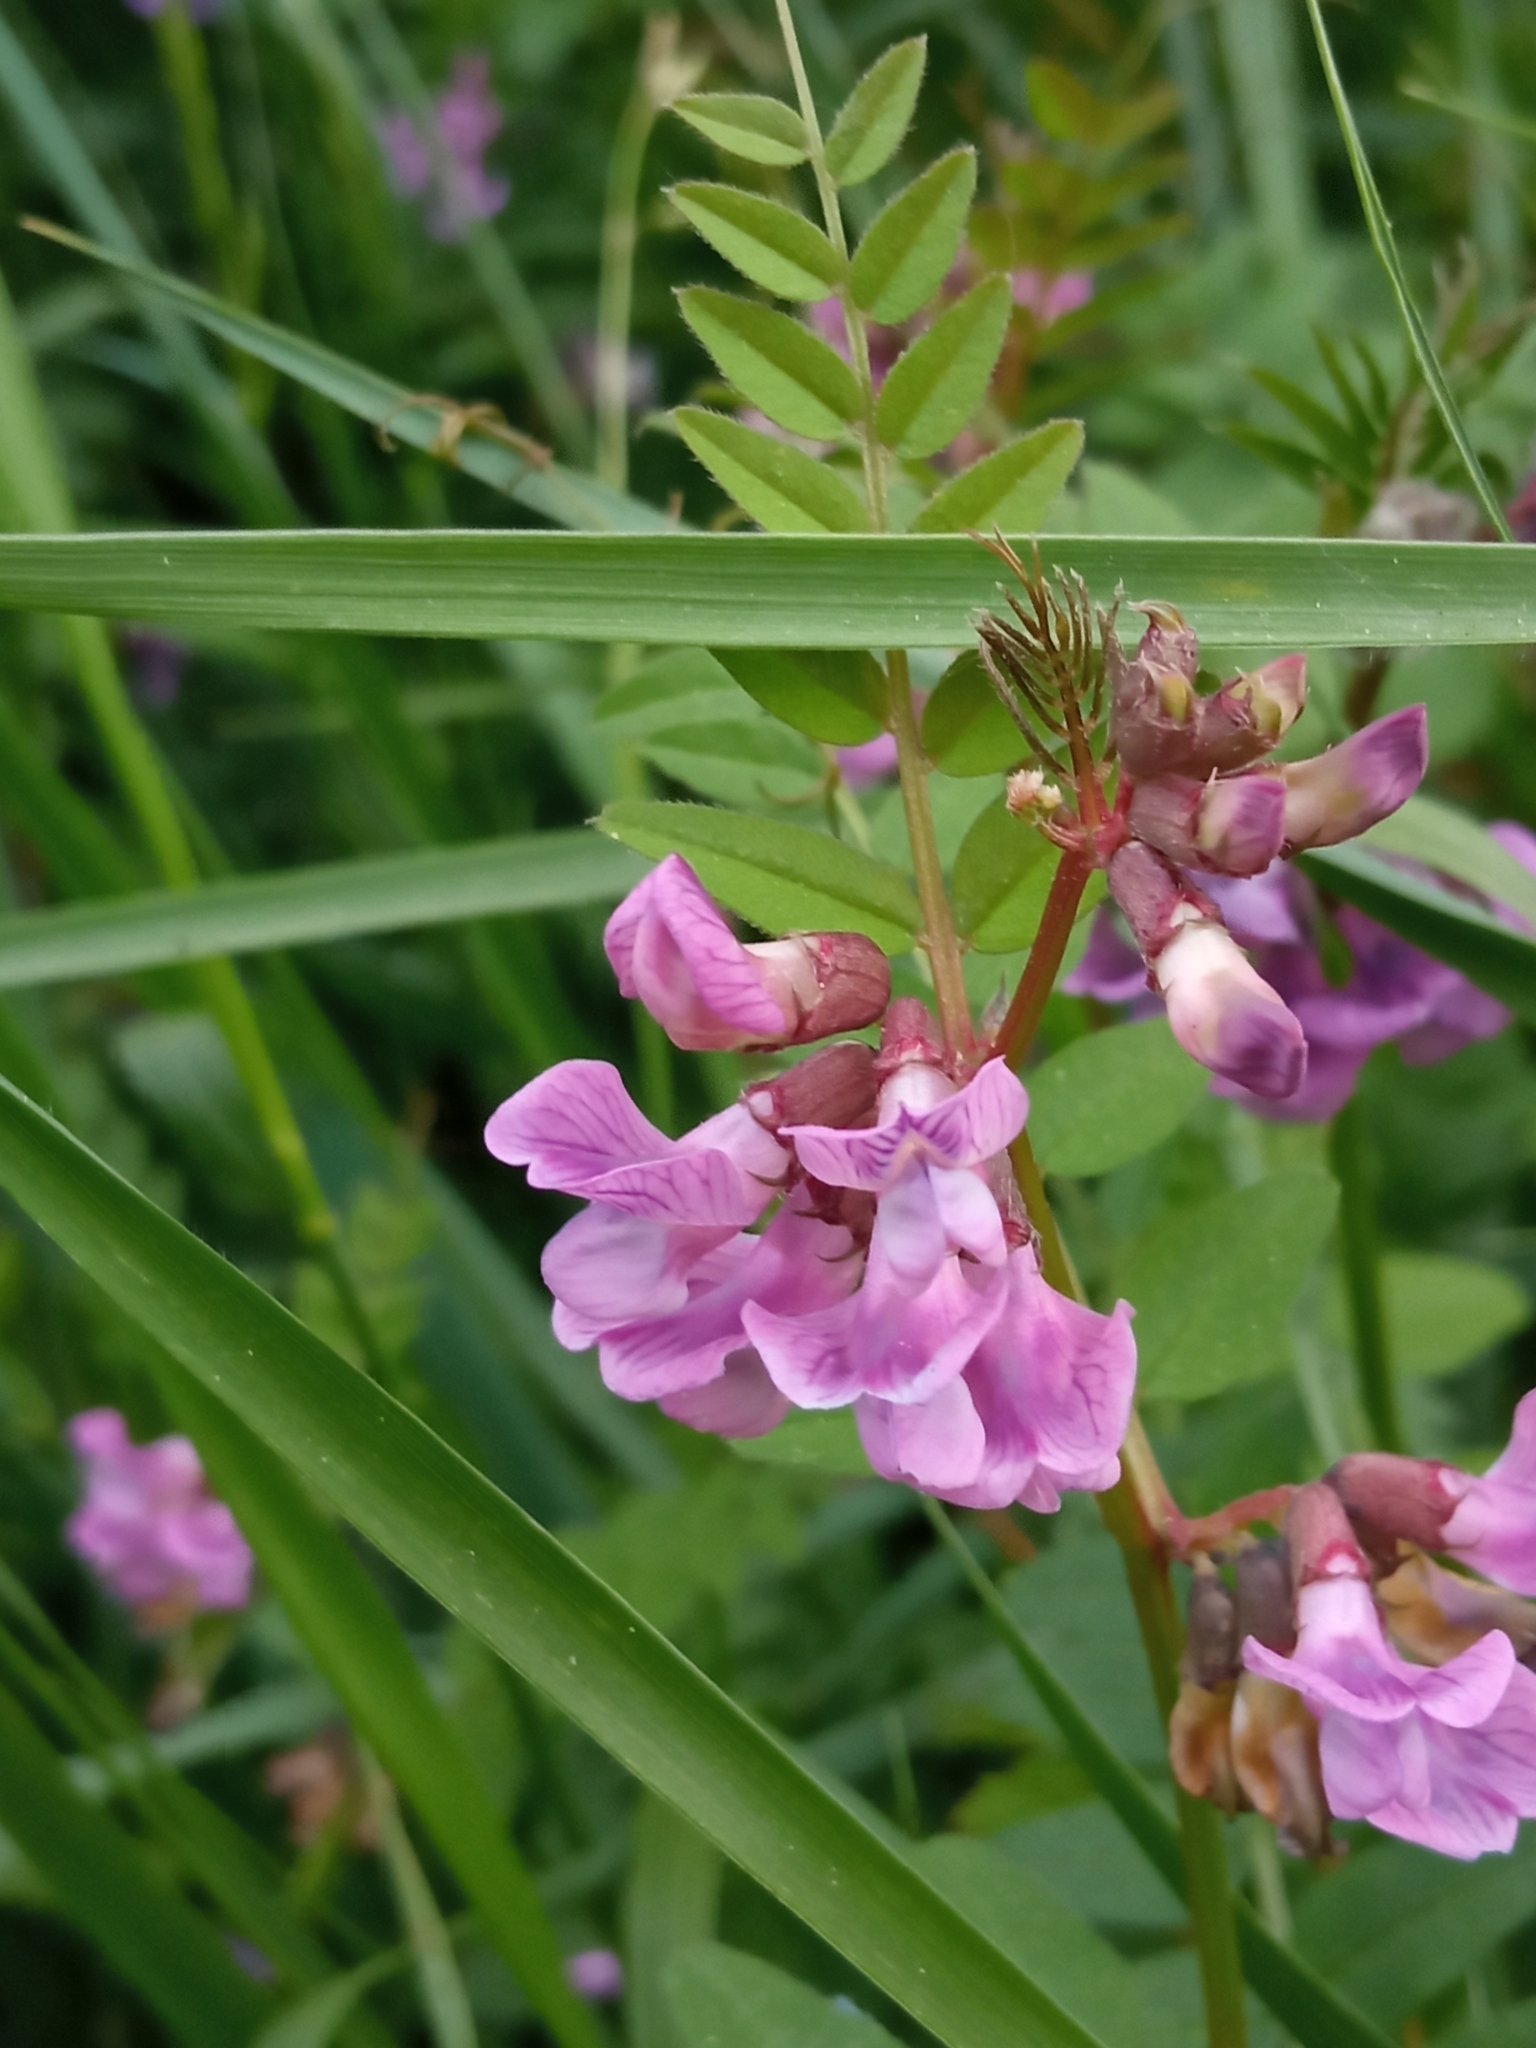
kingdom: Plantae
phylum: Tracheophyta
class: Magnoliopsida
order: Fabales
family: Fabaceae
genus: Vicia
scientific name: Vicia sepium
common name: Bush vetch
